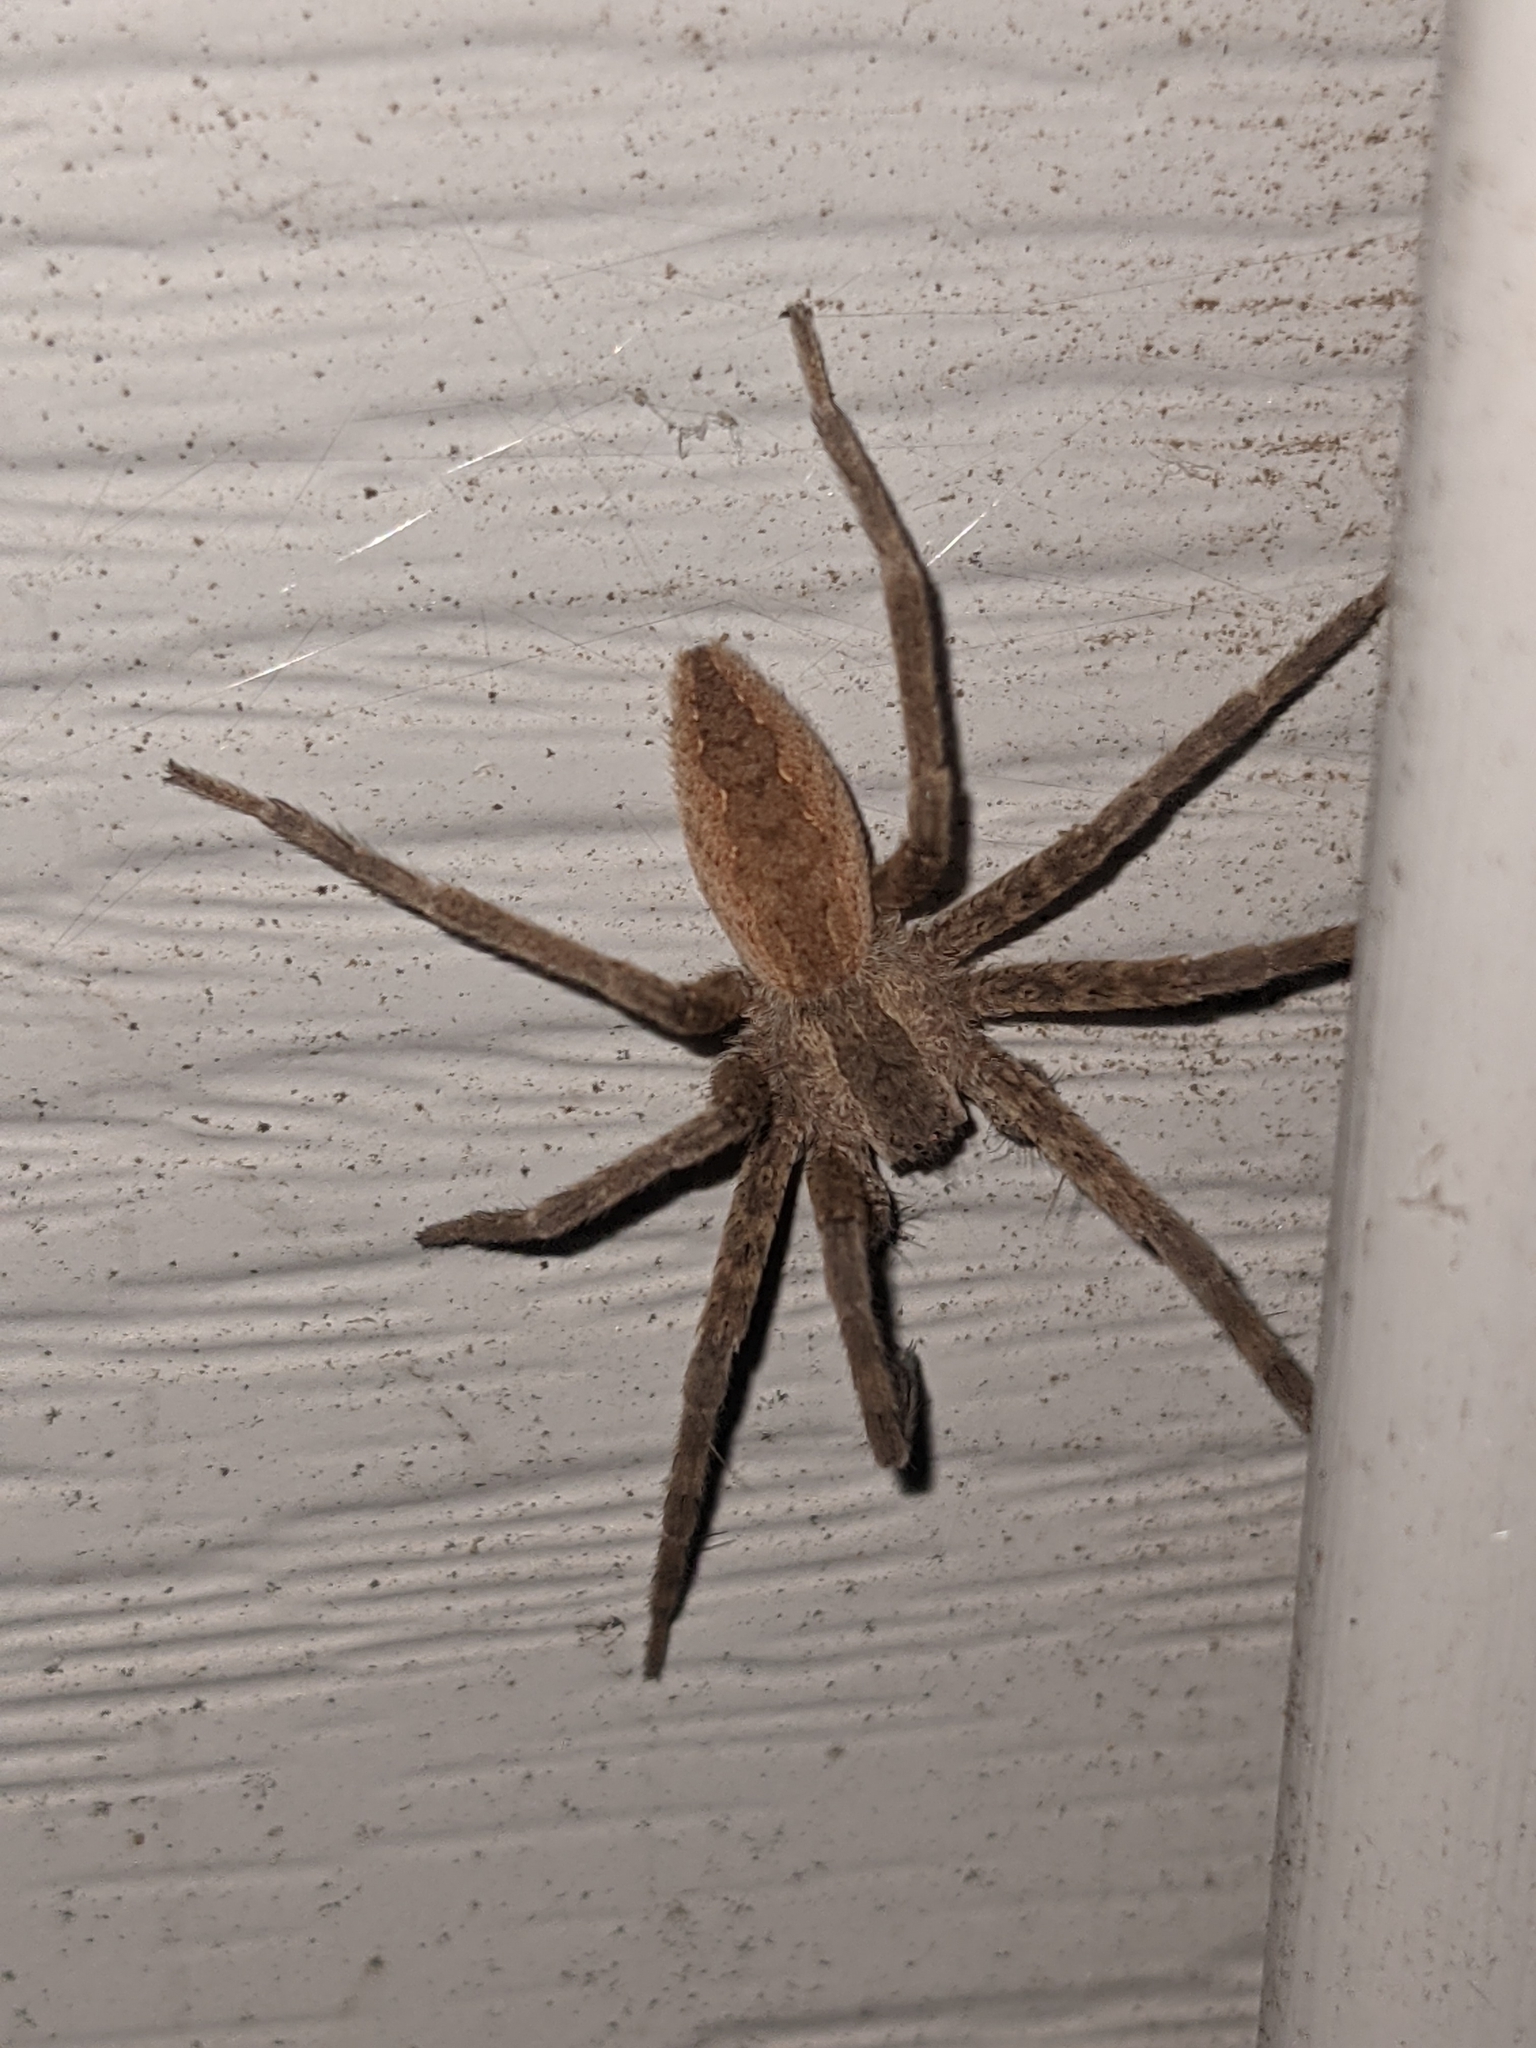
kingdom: Animalia
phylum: Arthropoda
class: Arachnida
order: Araneae
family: Pisauridae
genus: Pisaurina
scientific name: Pisaurina mira
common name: American nursery web spider
